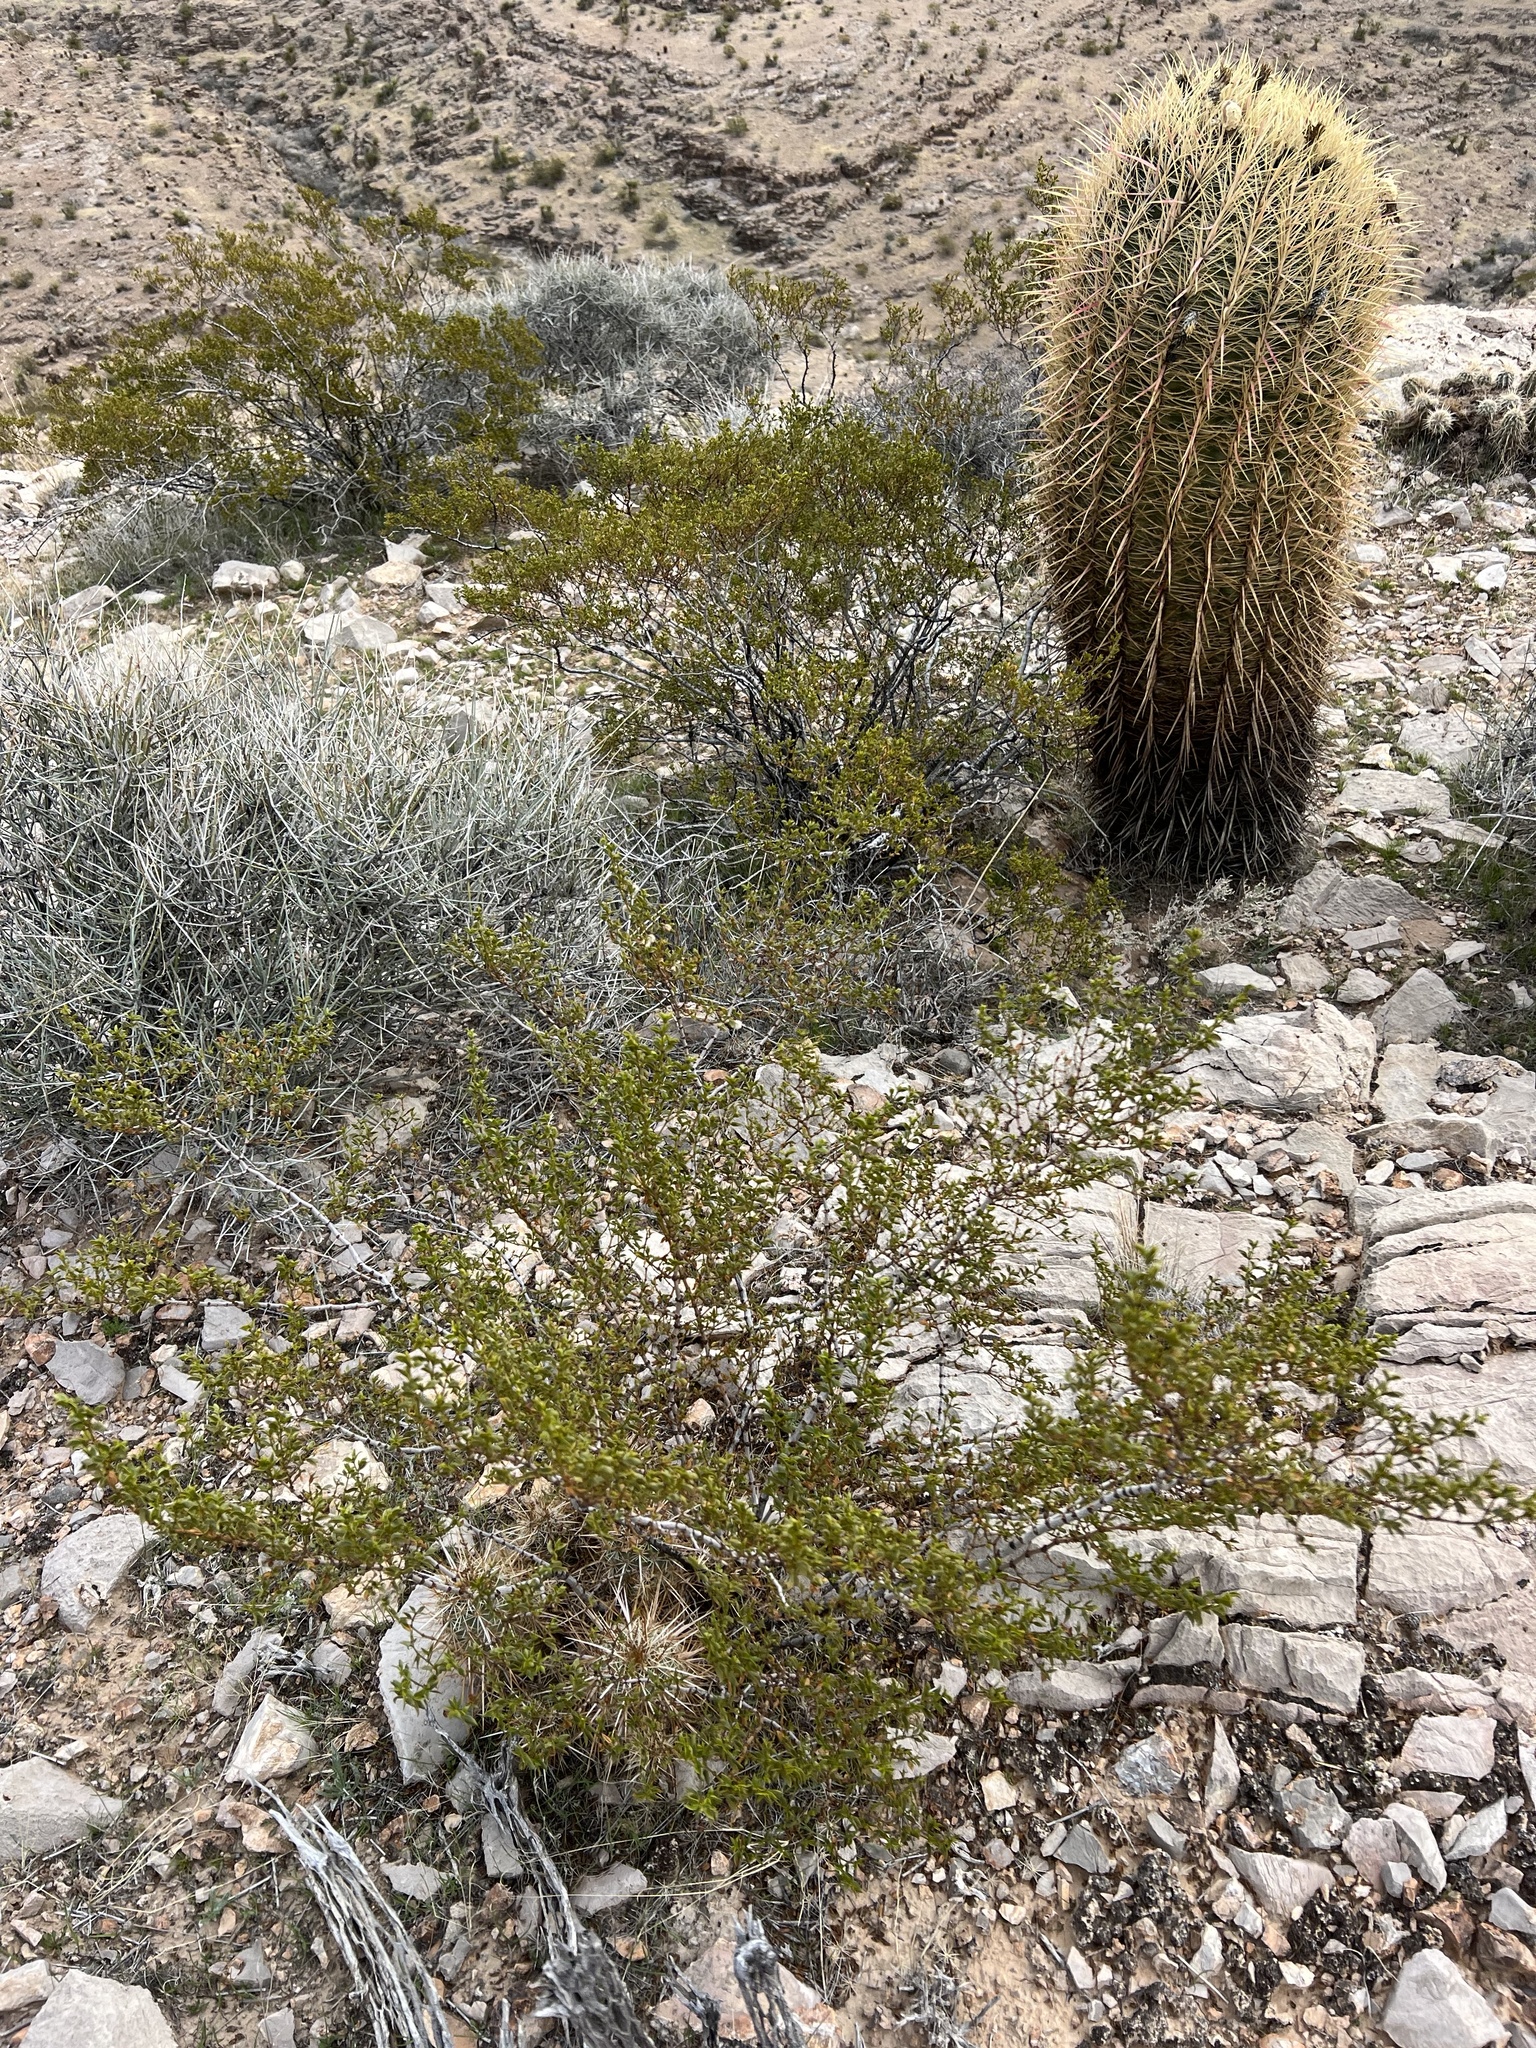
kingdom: Plantae
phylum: Tracheophyta
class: Magnoliopsida
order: Zygophyllales
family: Zygophyllaceae
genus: Larrea
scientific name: Larrea tridentata
